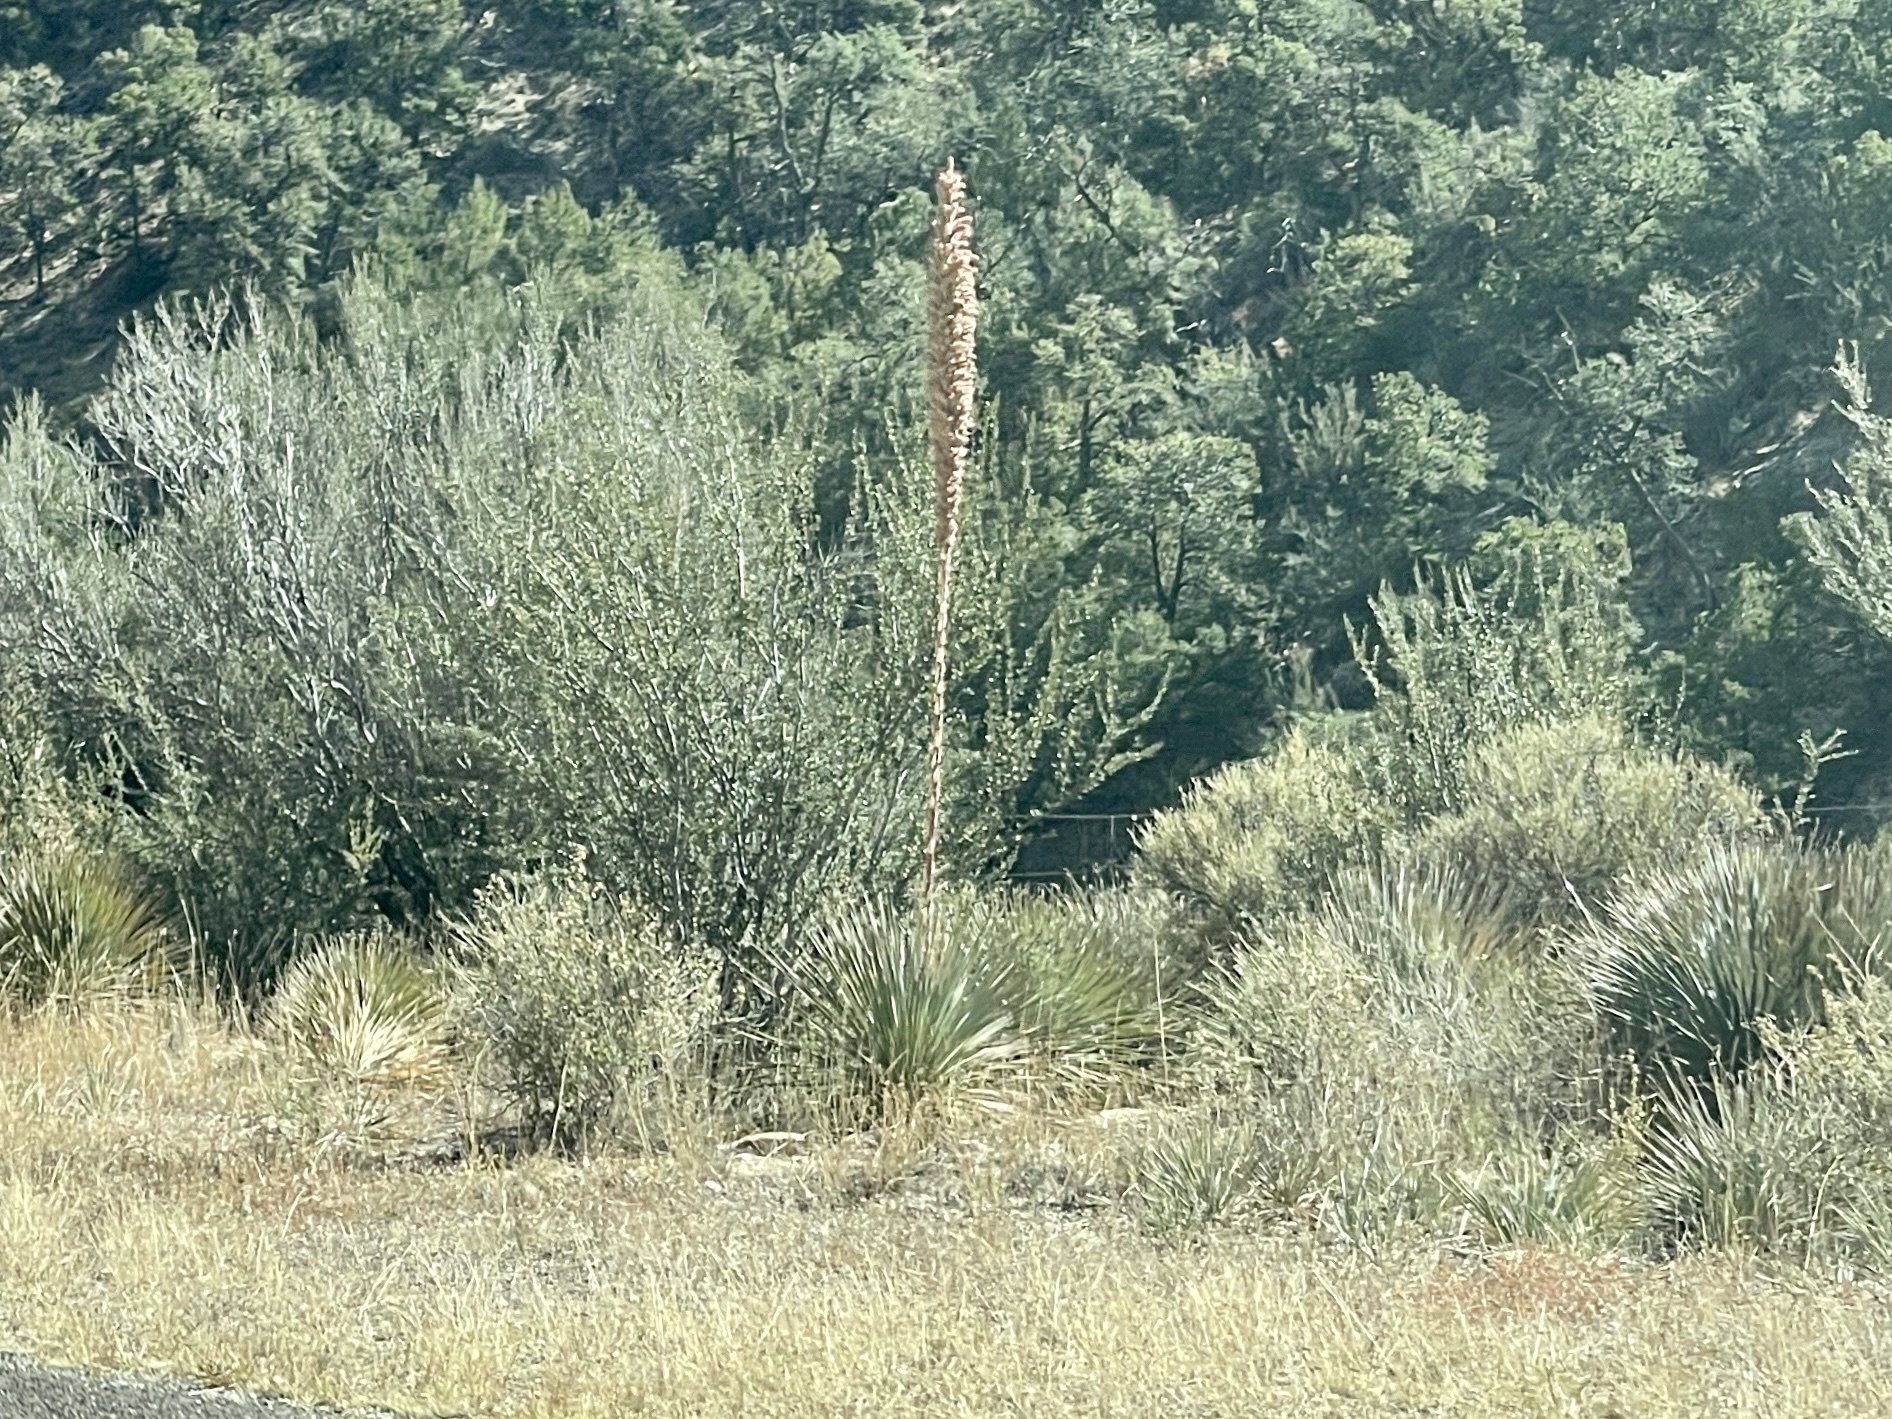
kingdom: Plantae
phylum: Tracheophyta
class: Liliopsida
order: Asparagales
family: Asparagaceae
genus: Dasylirion
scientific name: Dasylirion wheeleri
